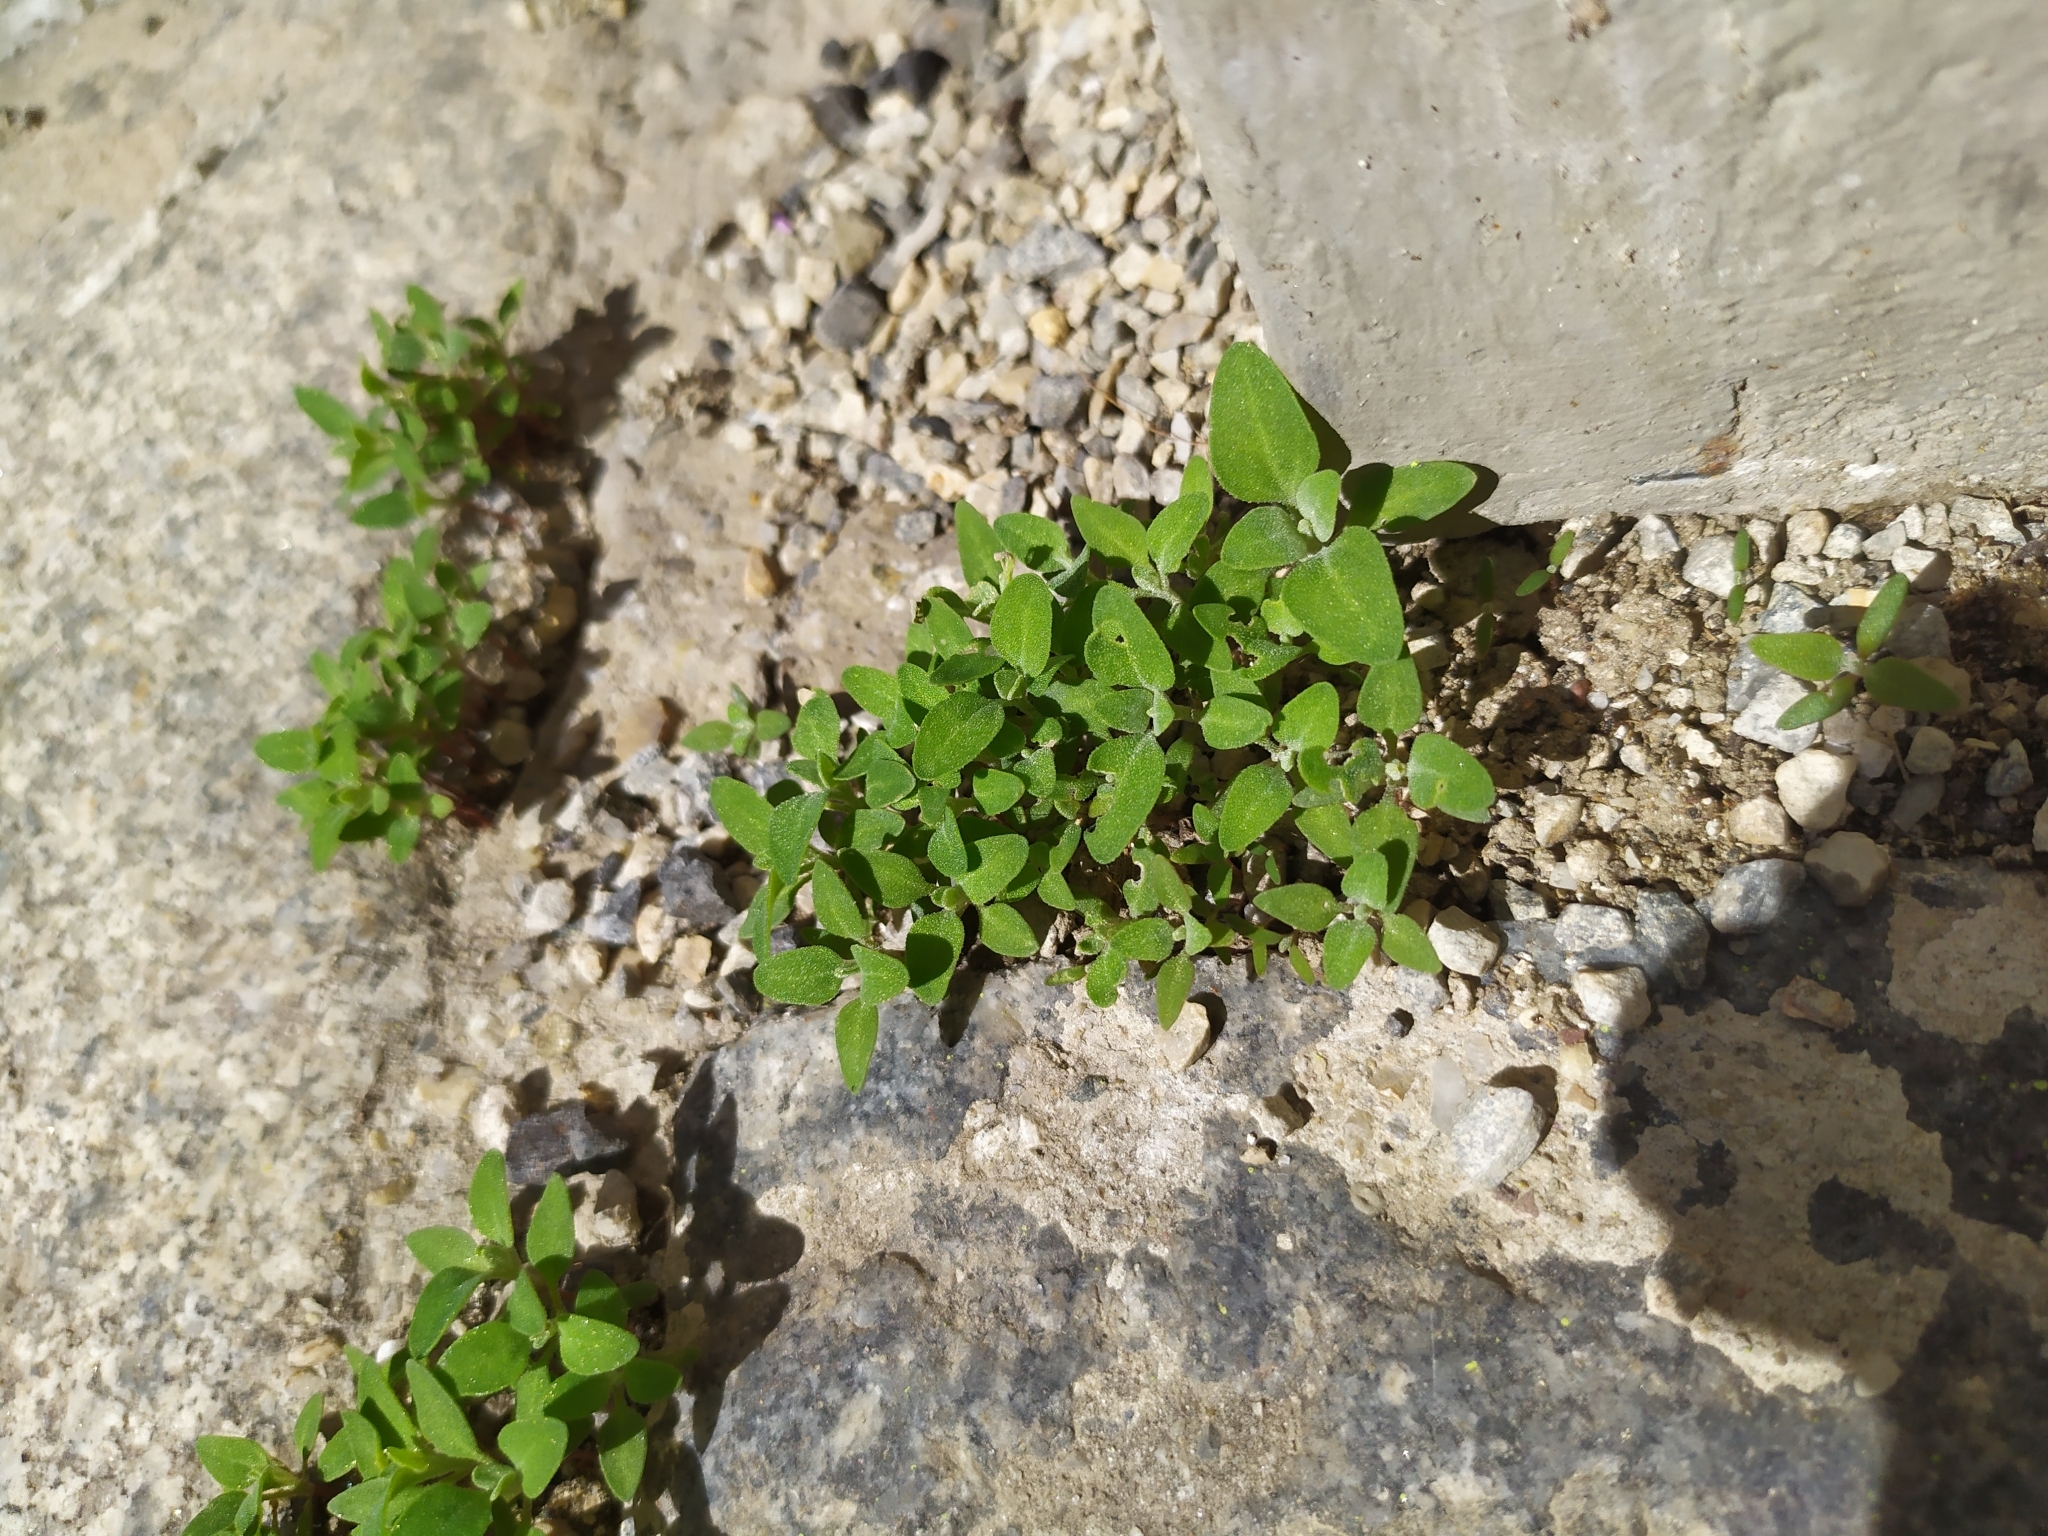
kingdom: Plantae
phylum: Tracheophyta
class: Magnoliopsida
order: Caryophyllales
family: Amaranthaceae
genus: Chenopodium
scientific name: Chenopodium vulvaria
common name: Stinking goosefoot
